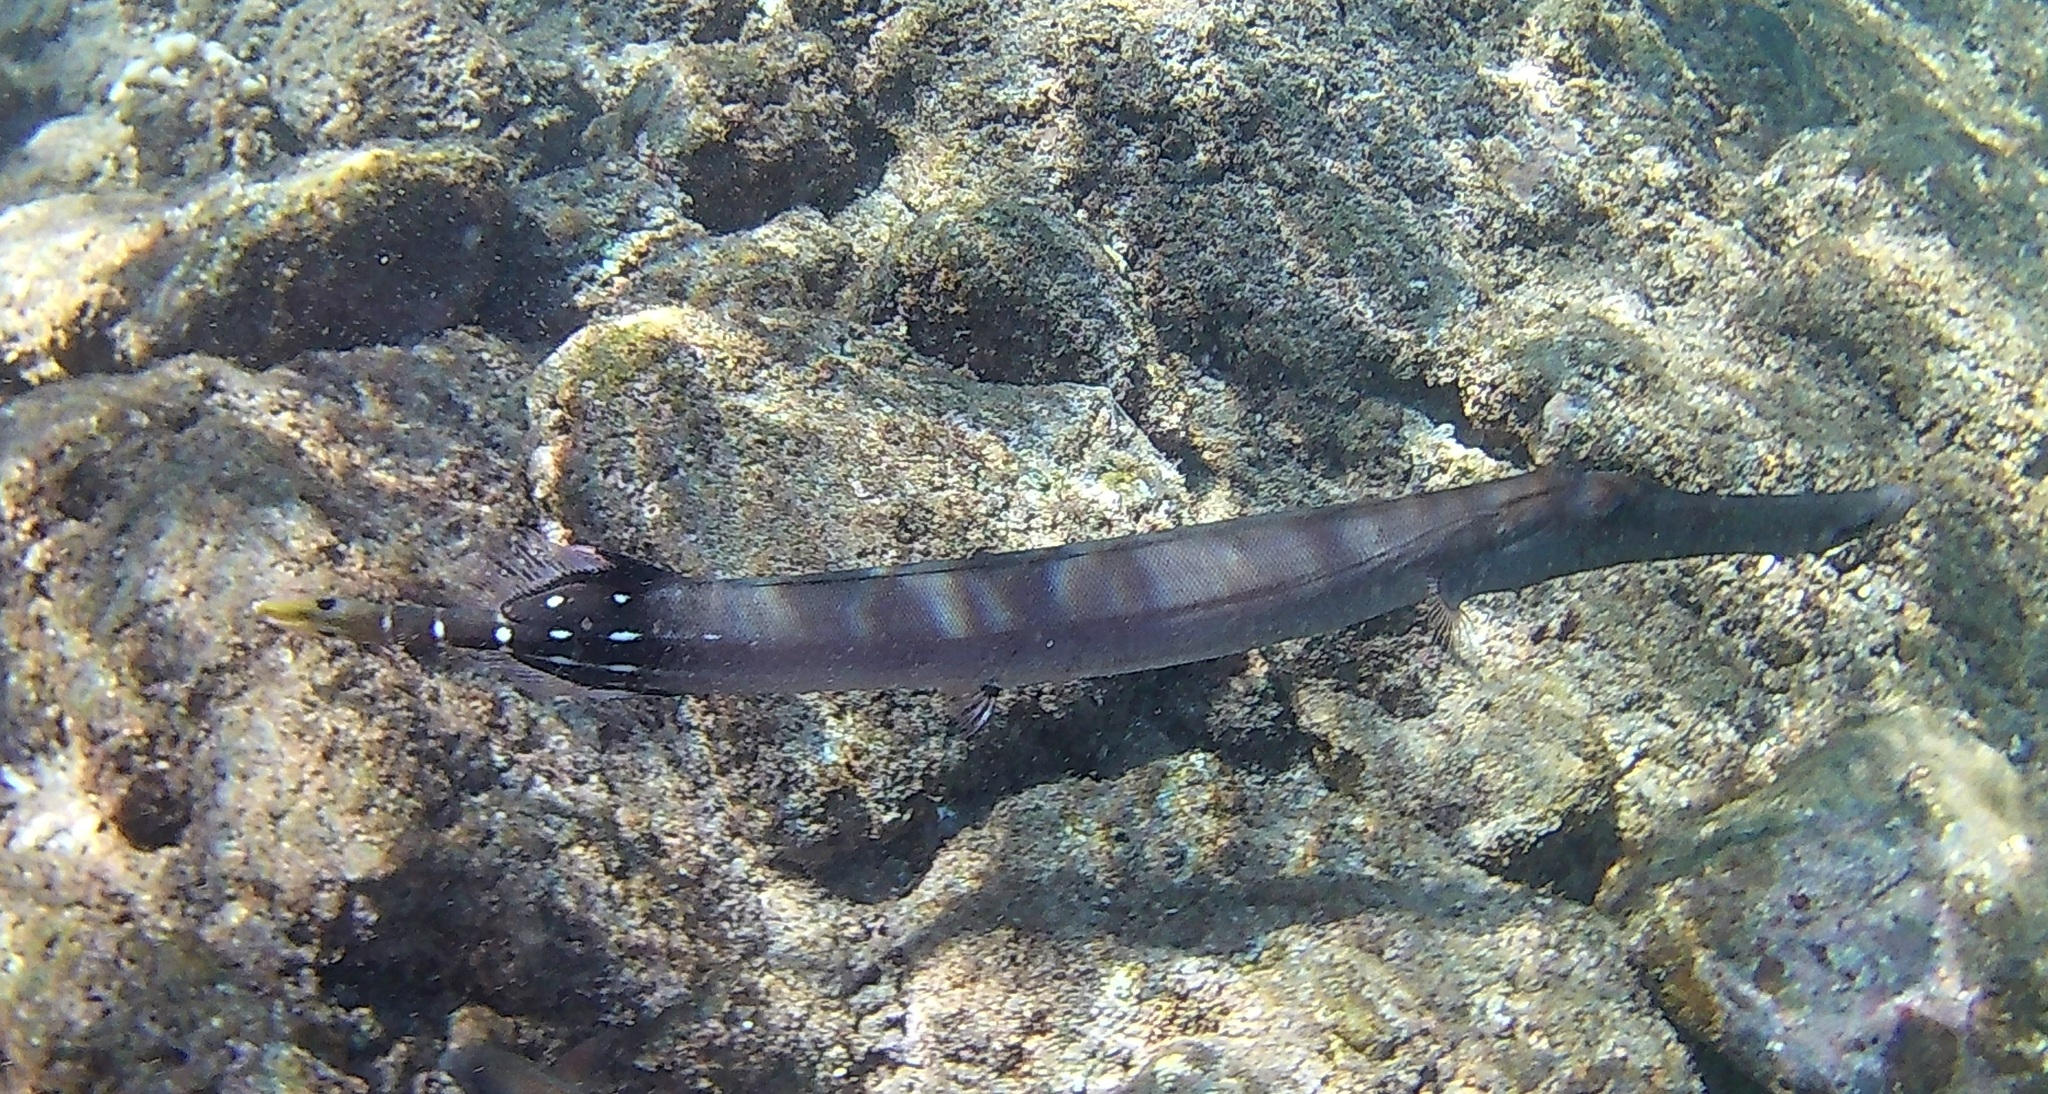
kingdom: Animalia
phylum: Chordata
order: Syngnathiformes
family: Aulostomidae
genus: Aulostomus
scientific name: Aulostomus chinensis
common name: Chinese trumpetfish
